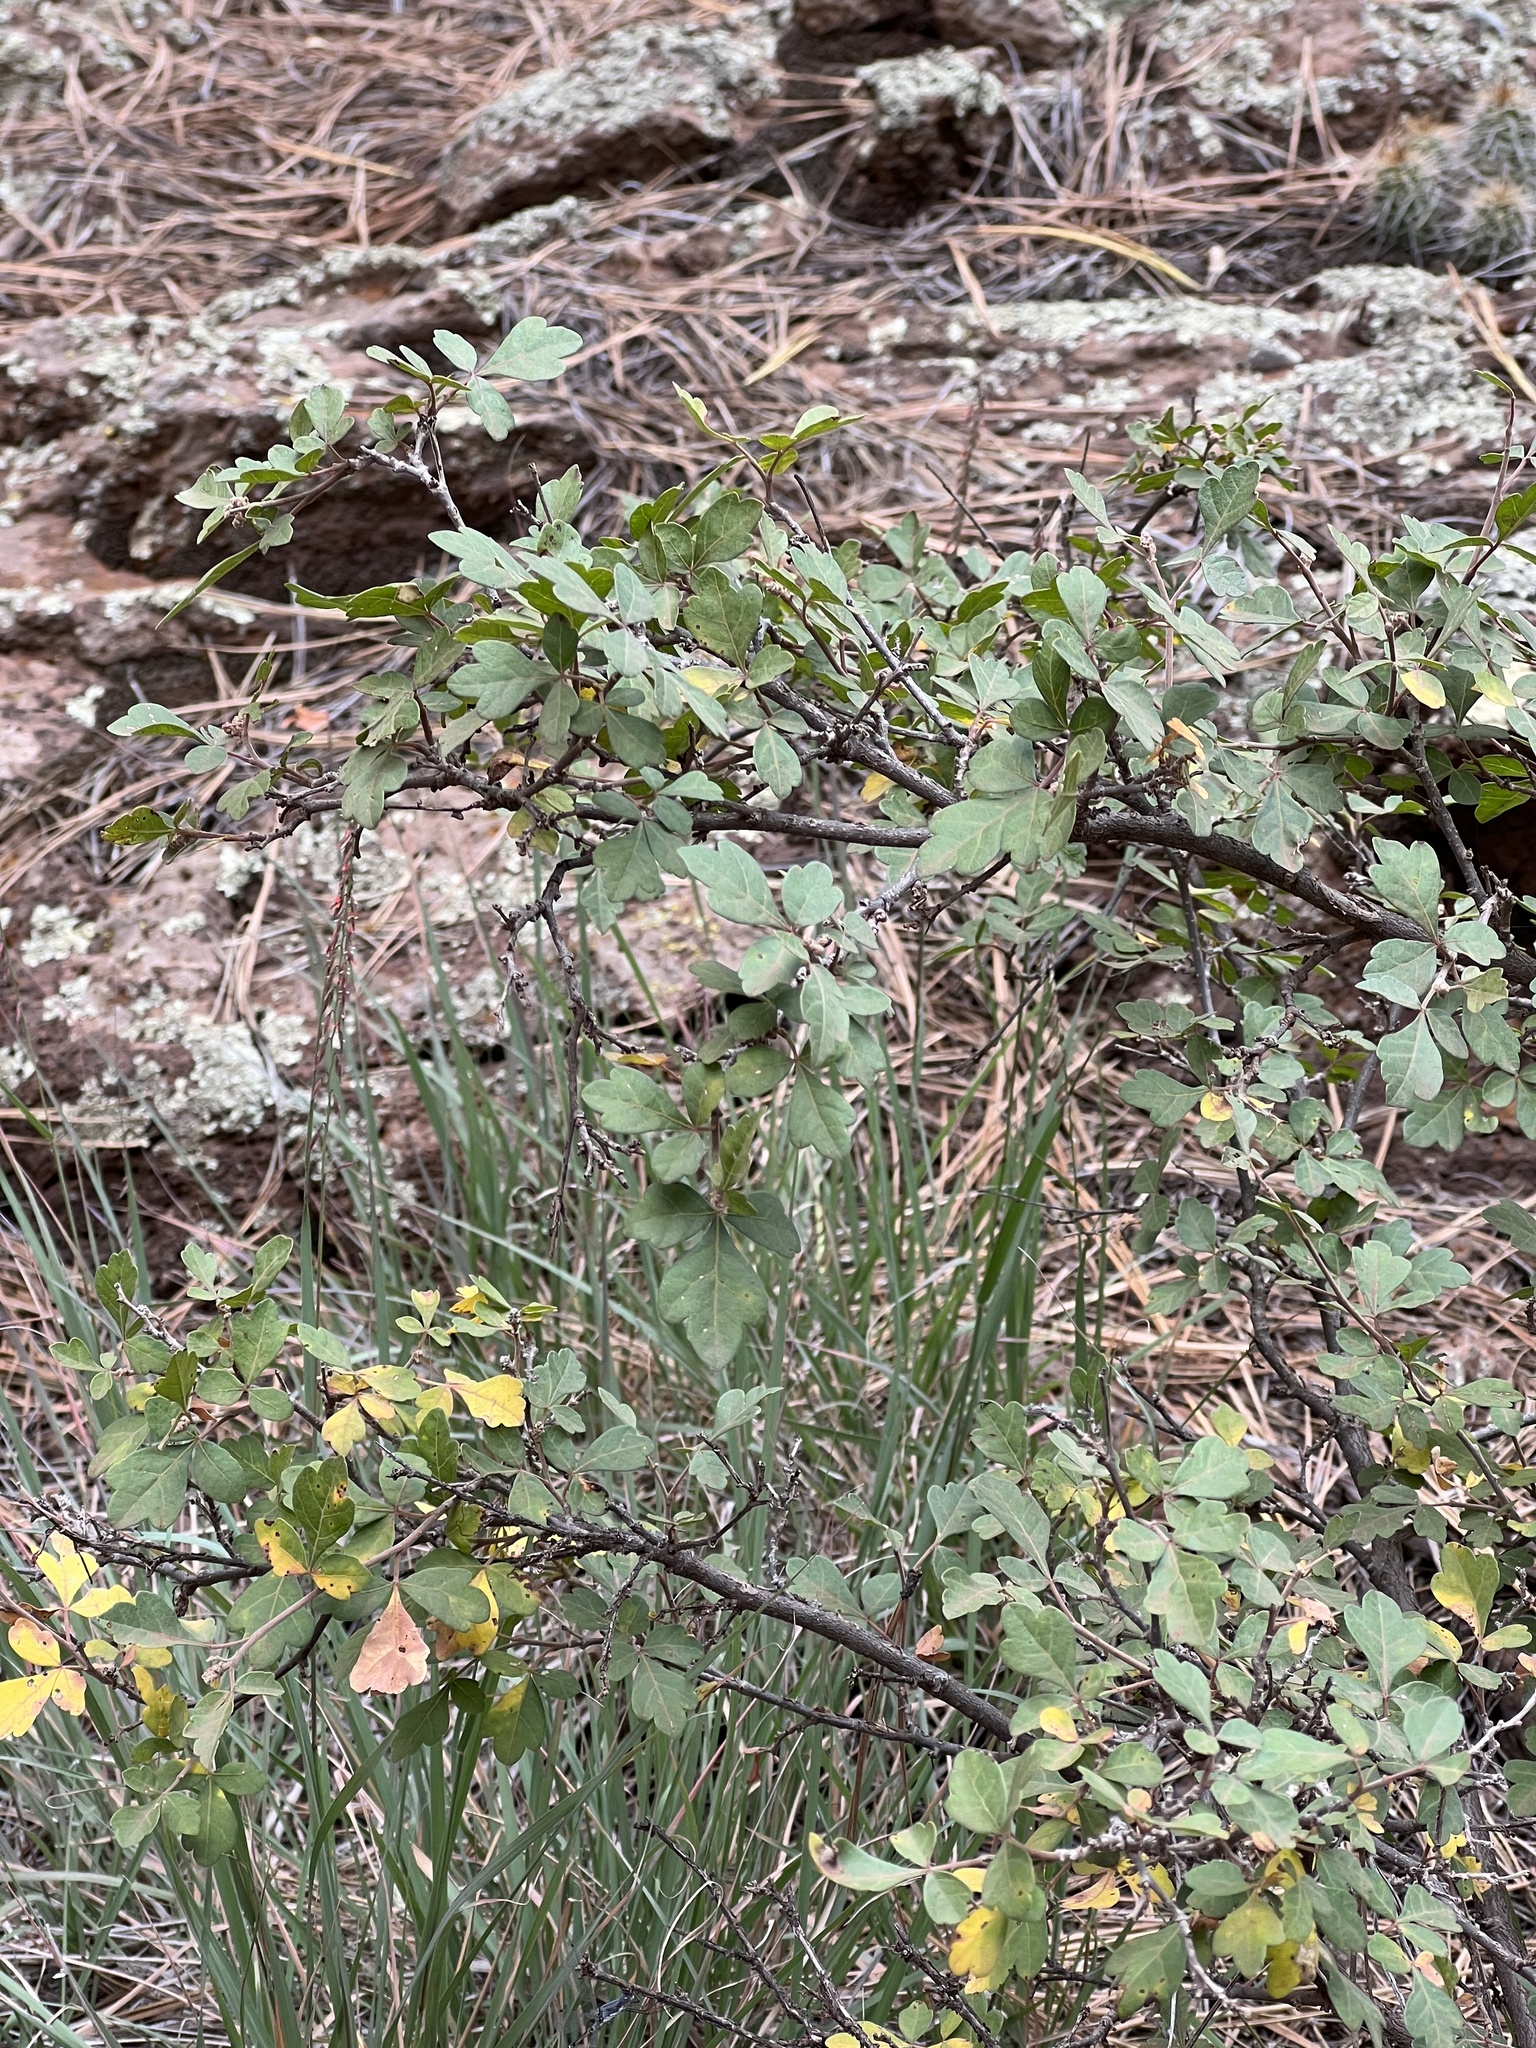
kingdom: Plantae
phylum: Tracheophyta
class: Magnoliopsida
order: Sapindales
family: Anacardiaceae
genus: Rhus
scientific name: Rhus trilobata
